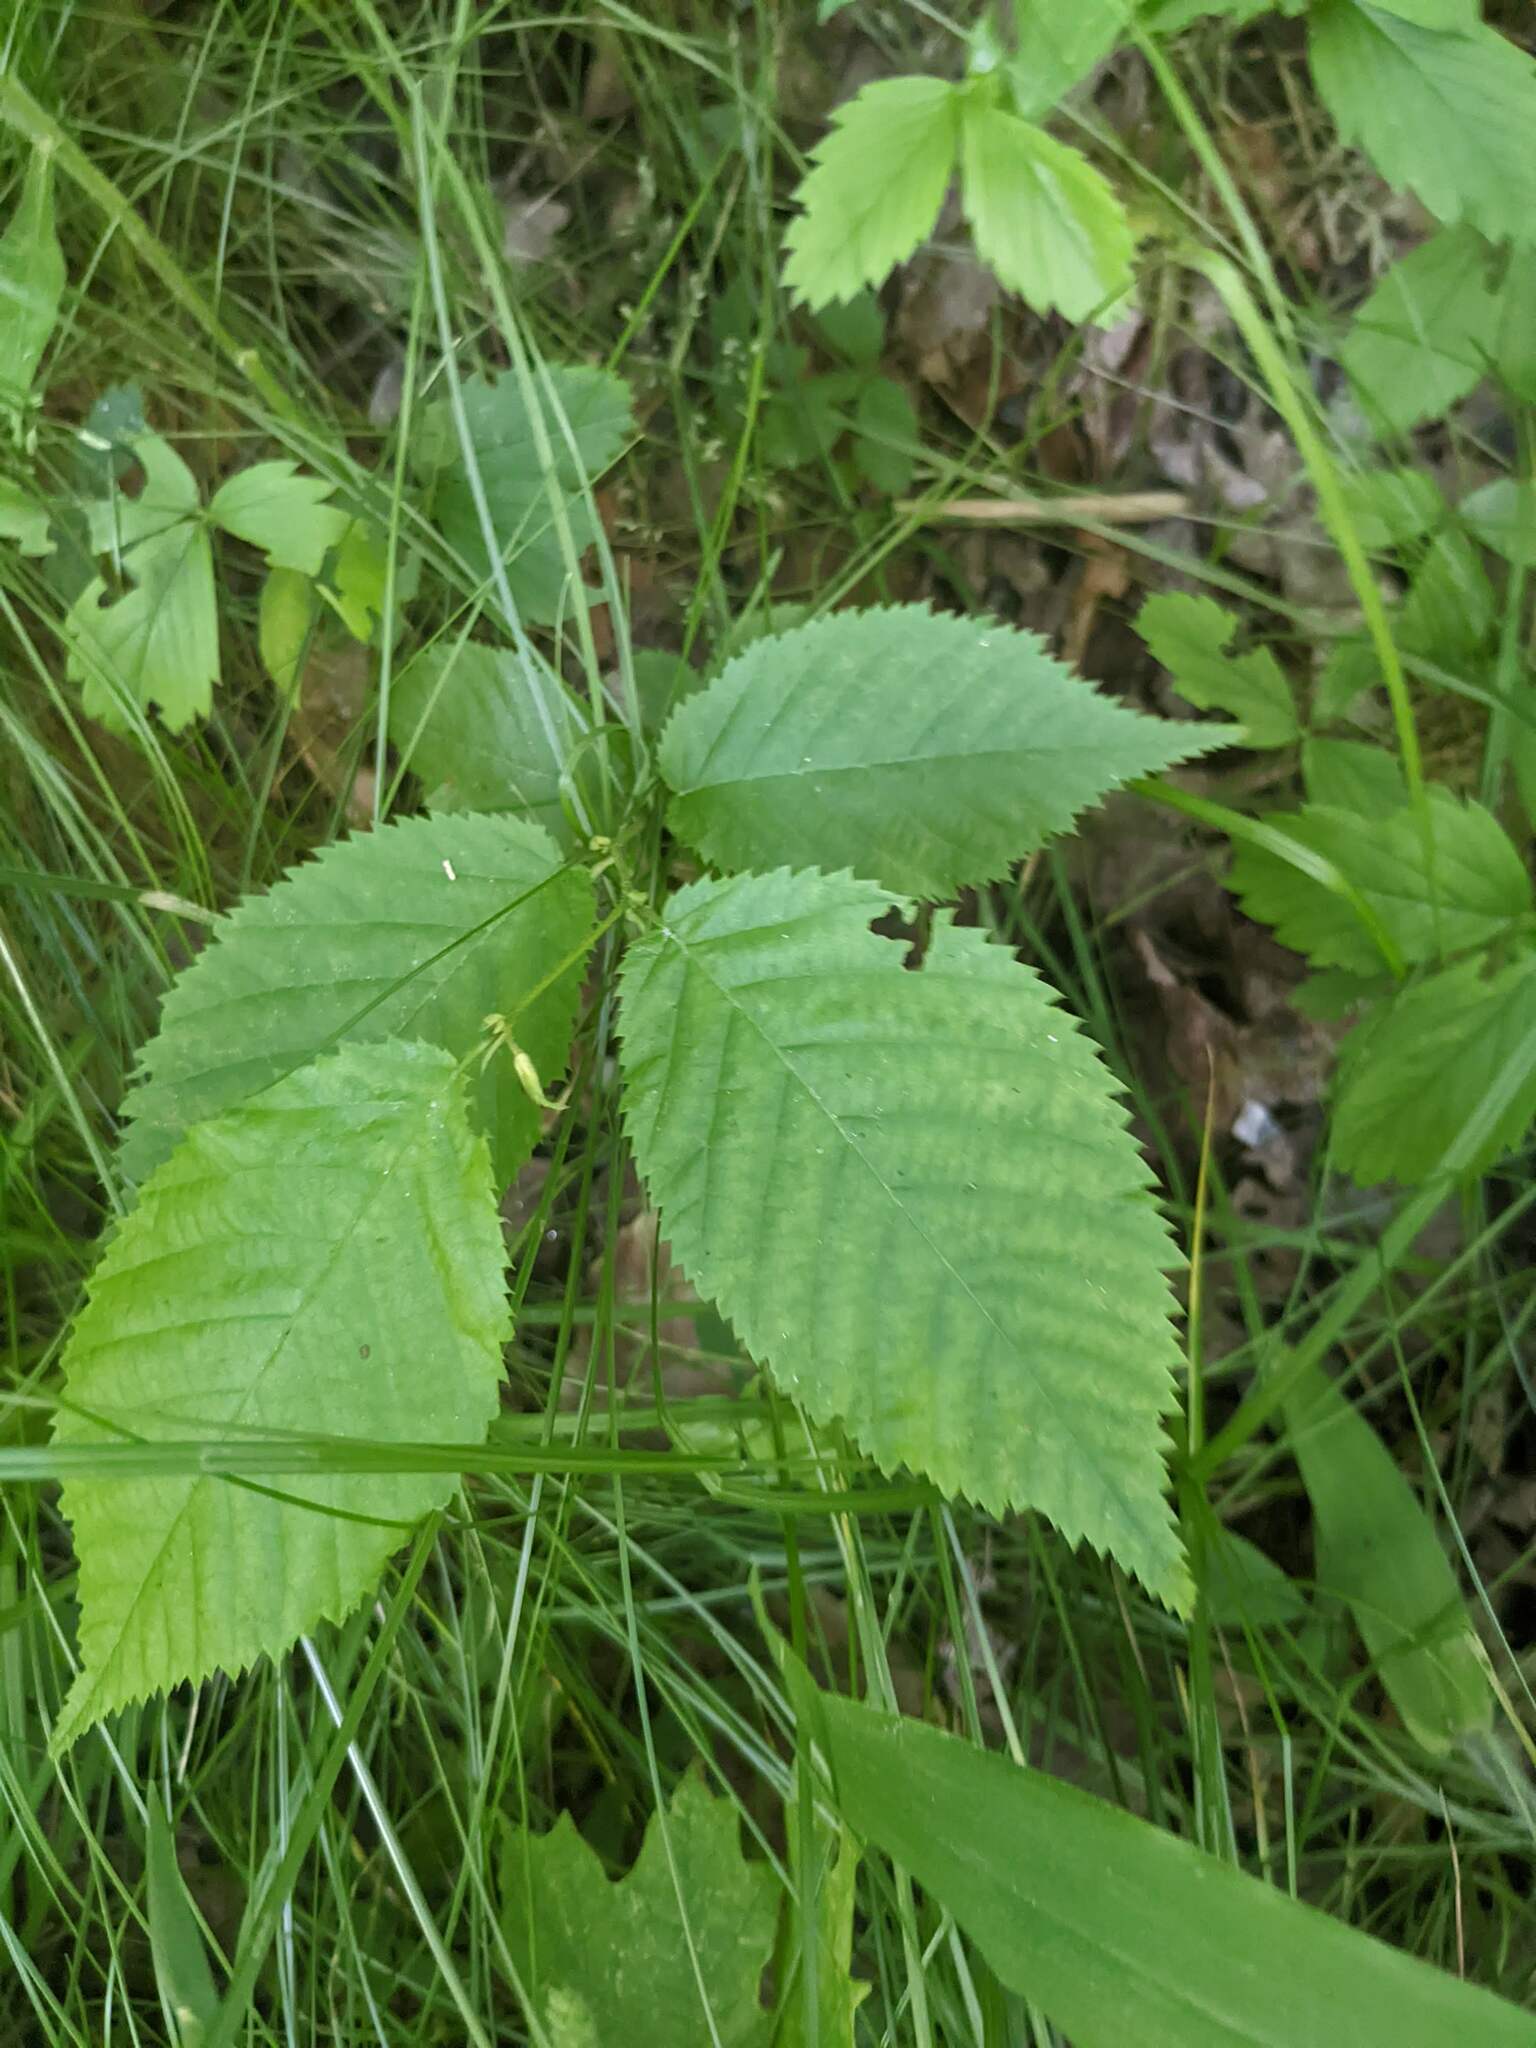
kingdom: Plantae
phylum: Tracheophyta
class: Magnoliopsida
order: Fagales
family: Betulaceae
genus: Betula
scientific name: Betula alleghaniensis
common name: Yellow birch
